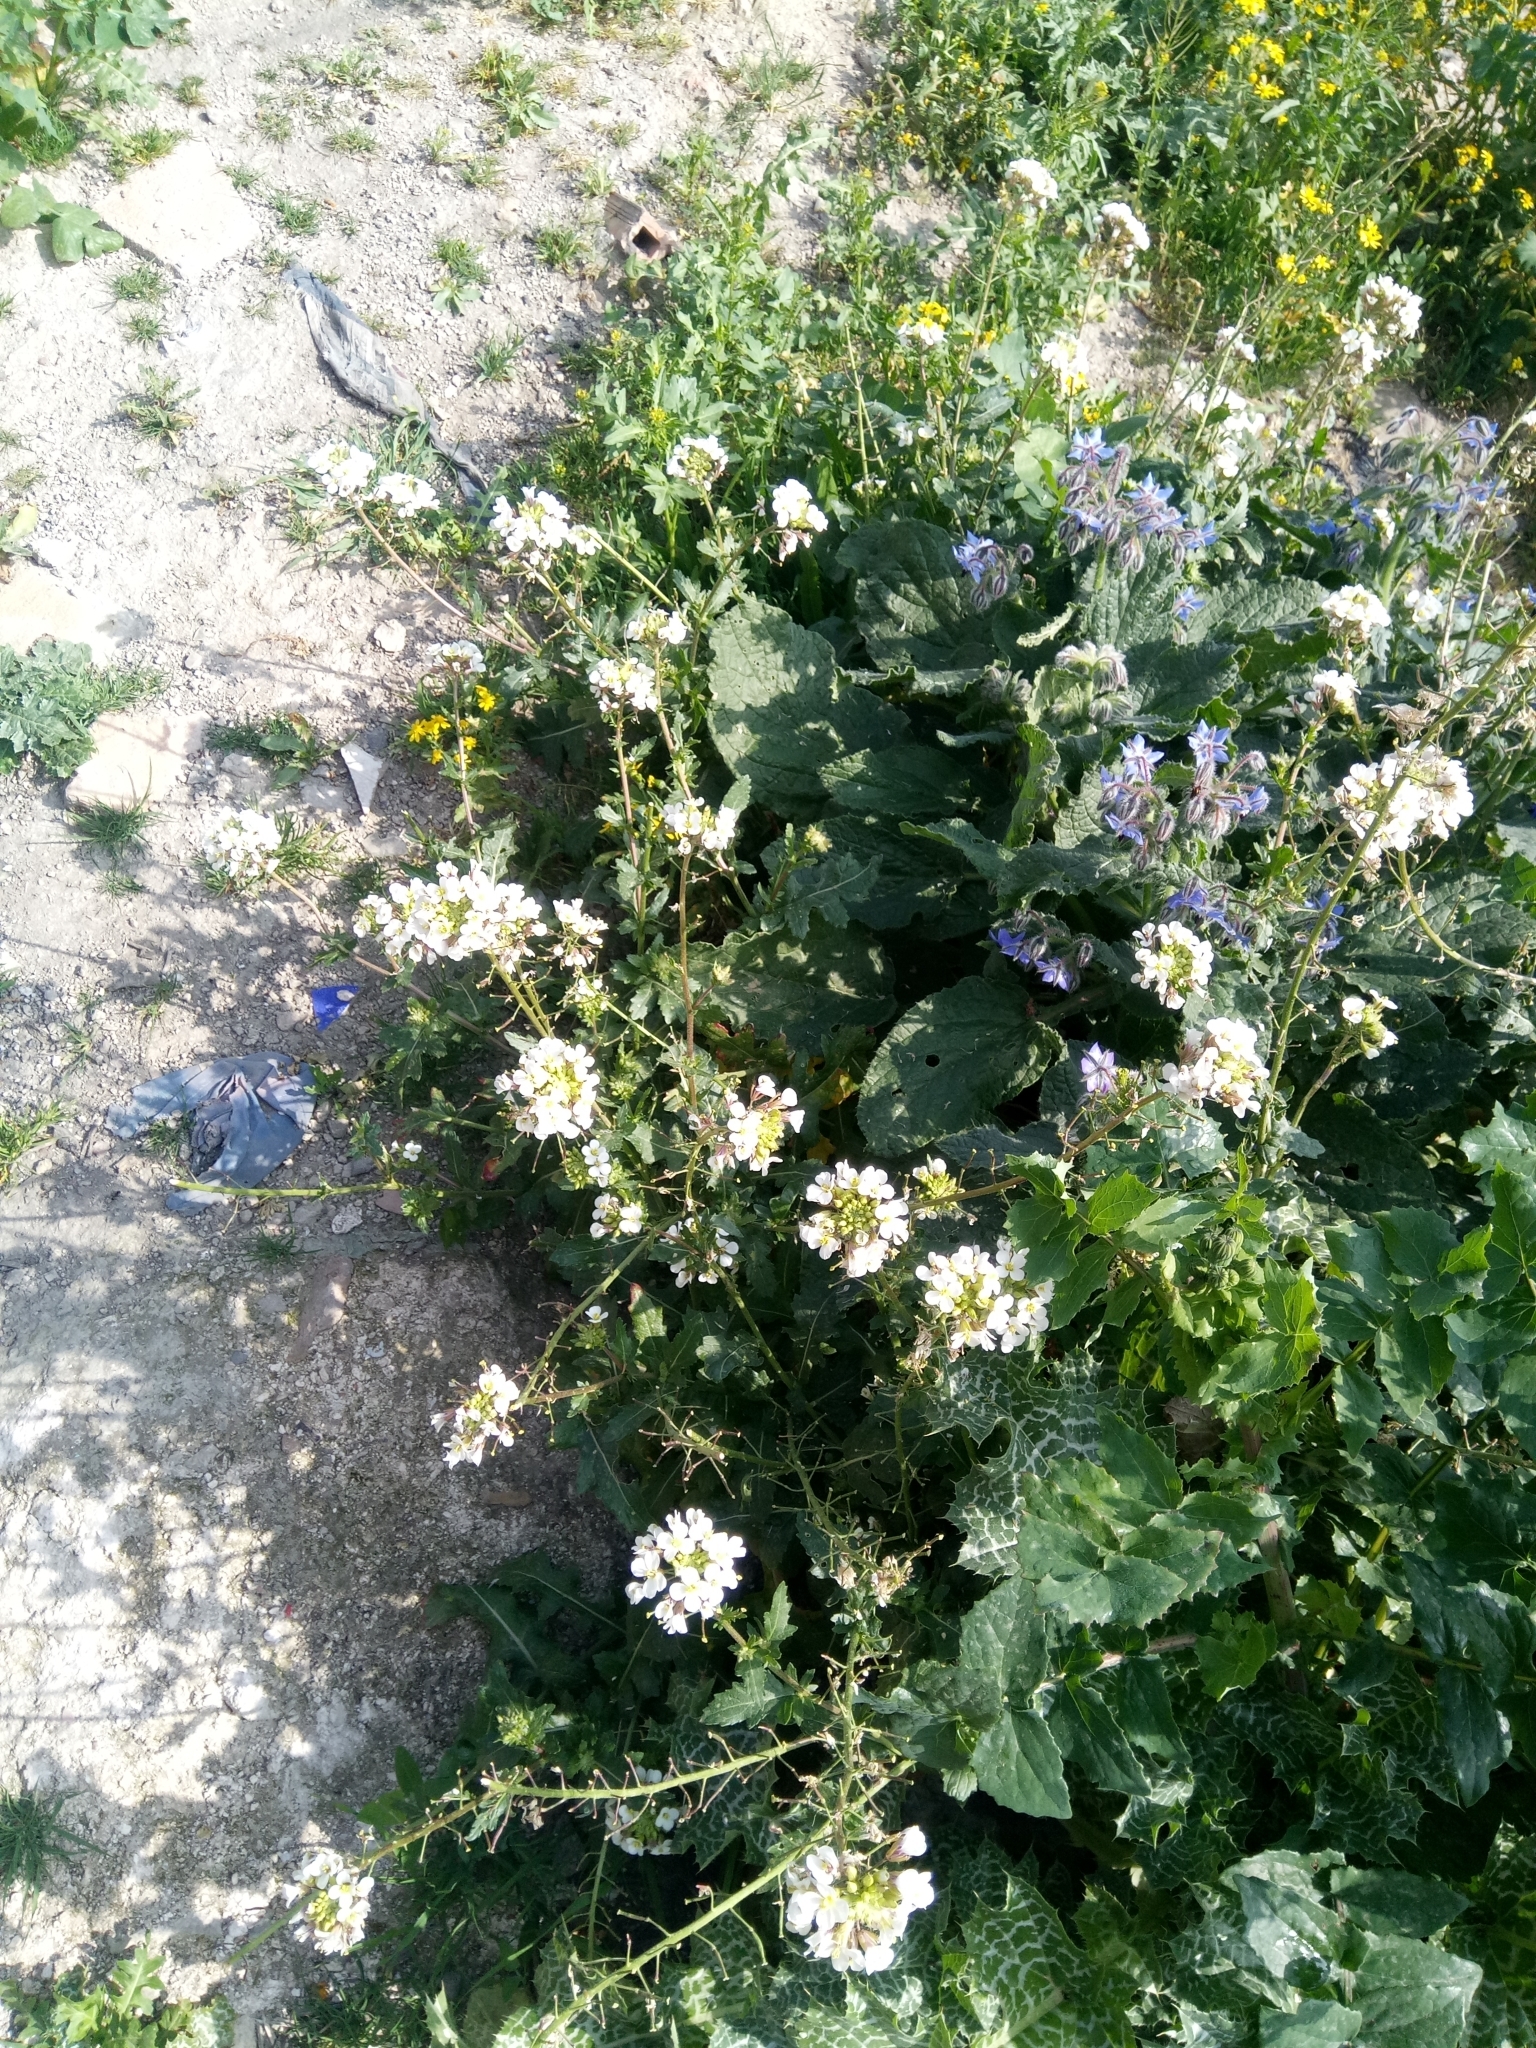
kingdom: Plantae
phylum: Tracheophyta
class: Magnoliopsida
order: Brassicales
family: Brassicaceae
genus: Diplotaxis
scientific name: Diplotaxis erucoides
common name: White rocket
